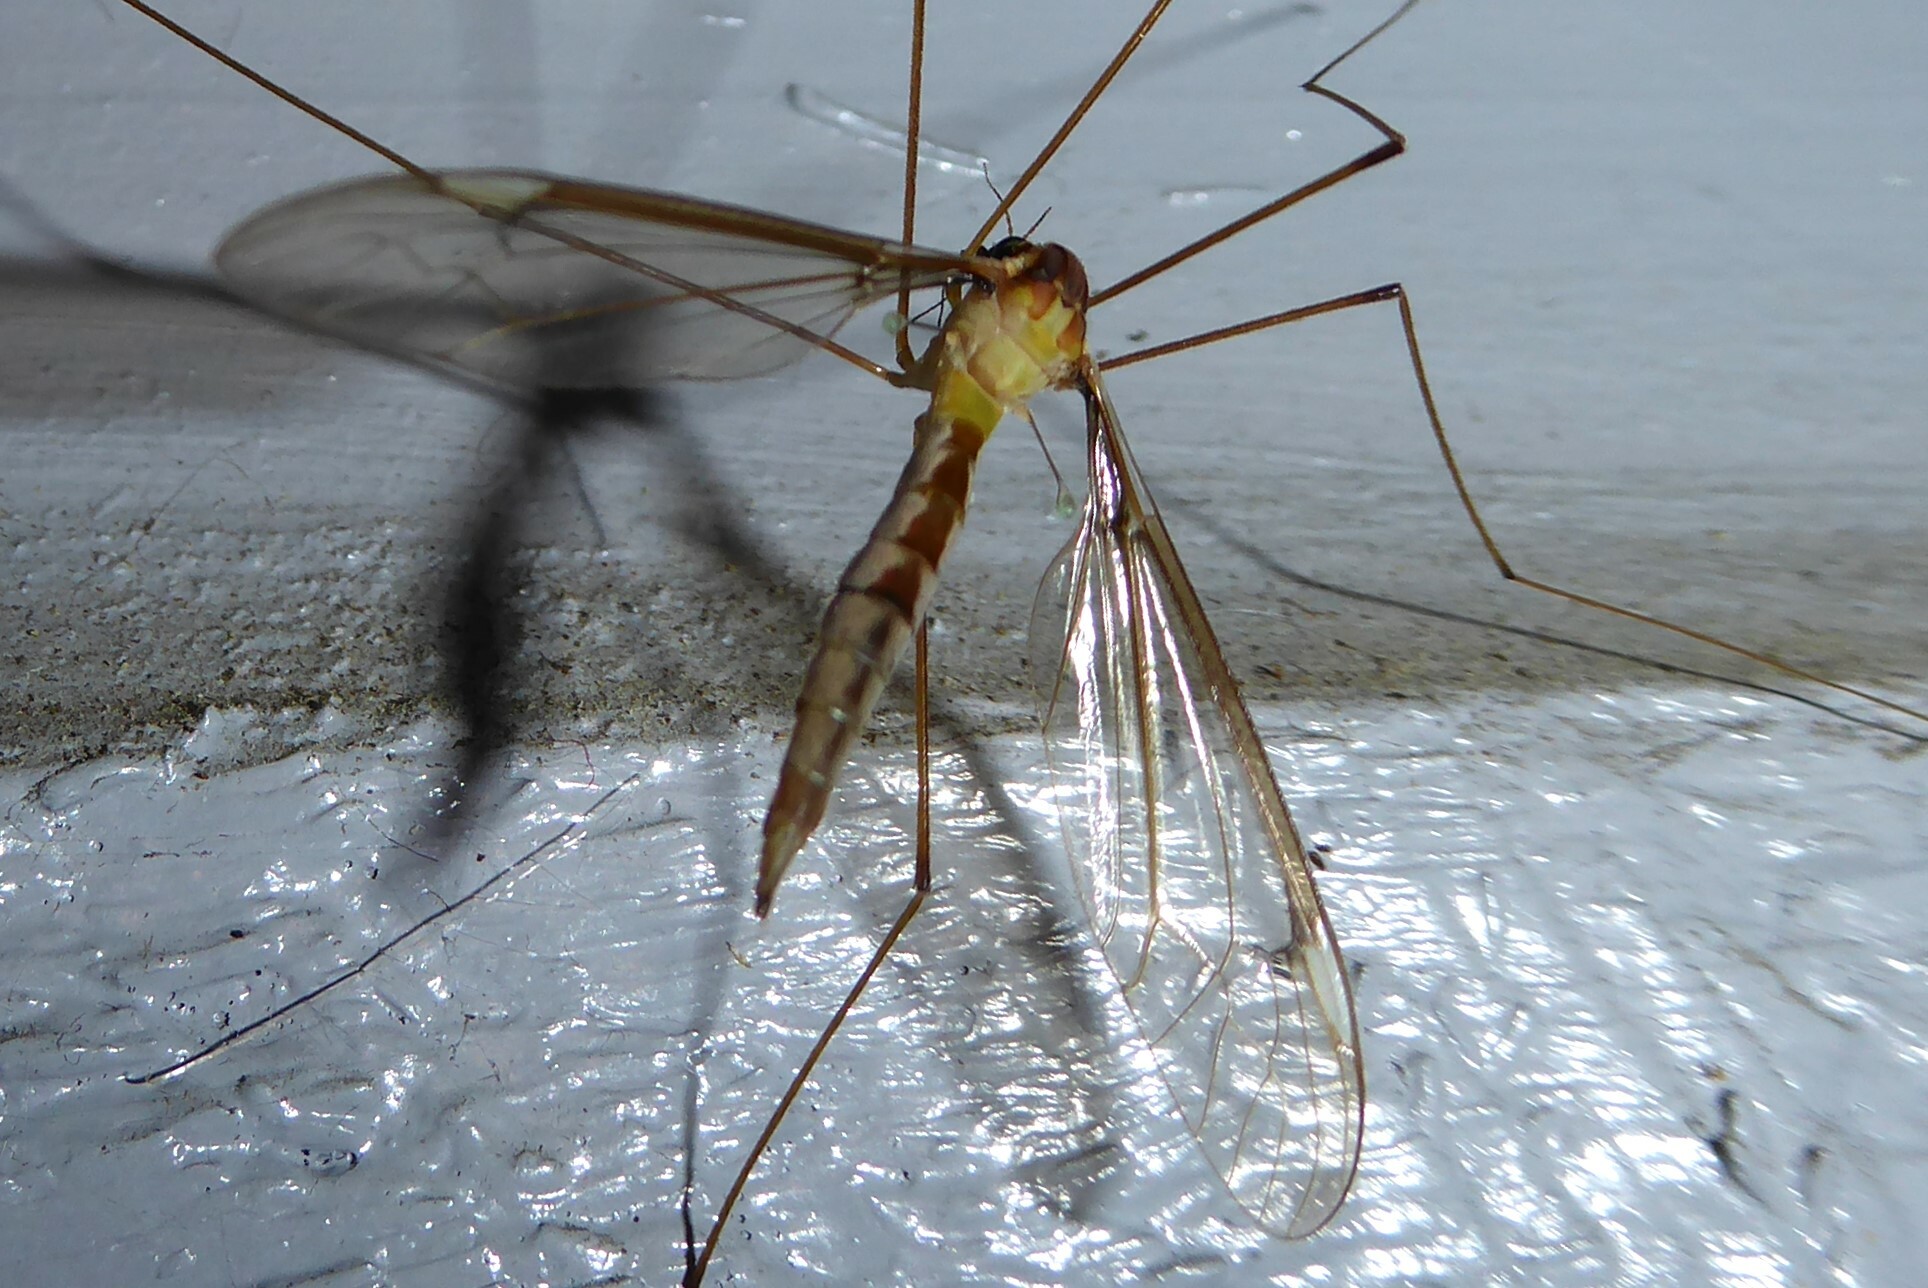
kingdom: Animalia
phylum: Arthropoda
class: Insecta
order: Diptera
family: Tipulidae
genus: Leptotarsus
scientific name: Leptotarsus albistigma
